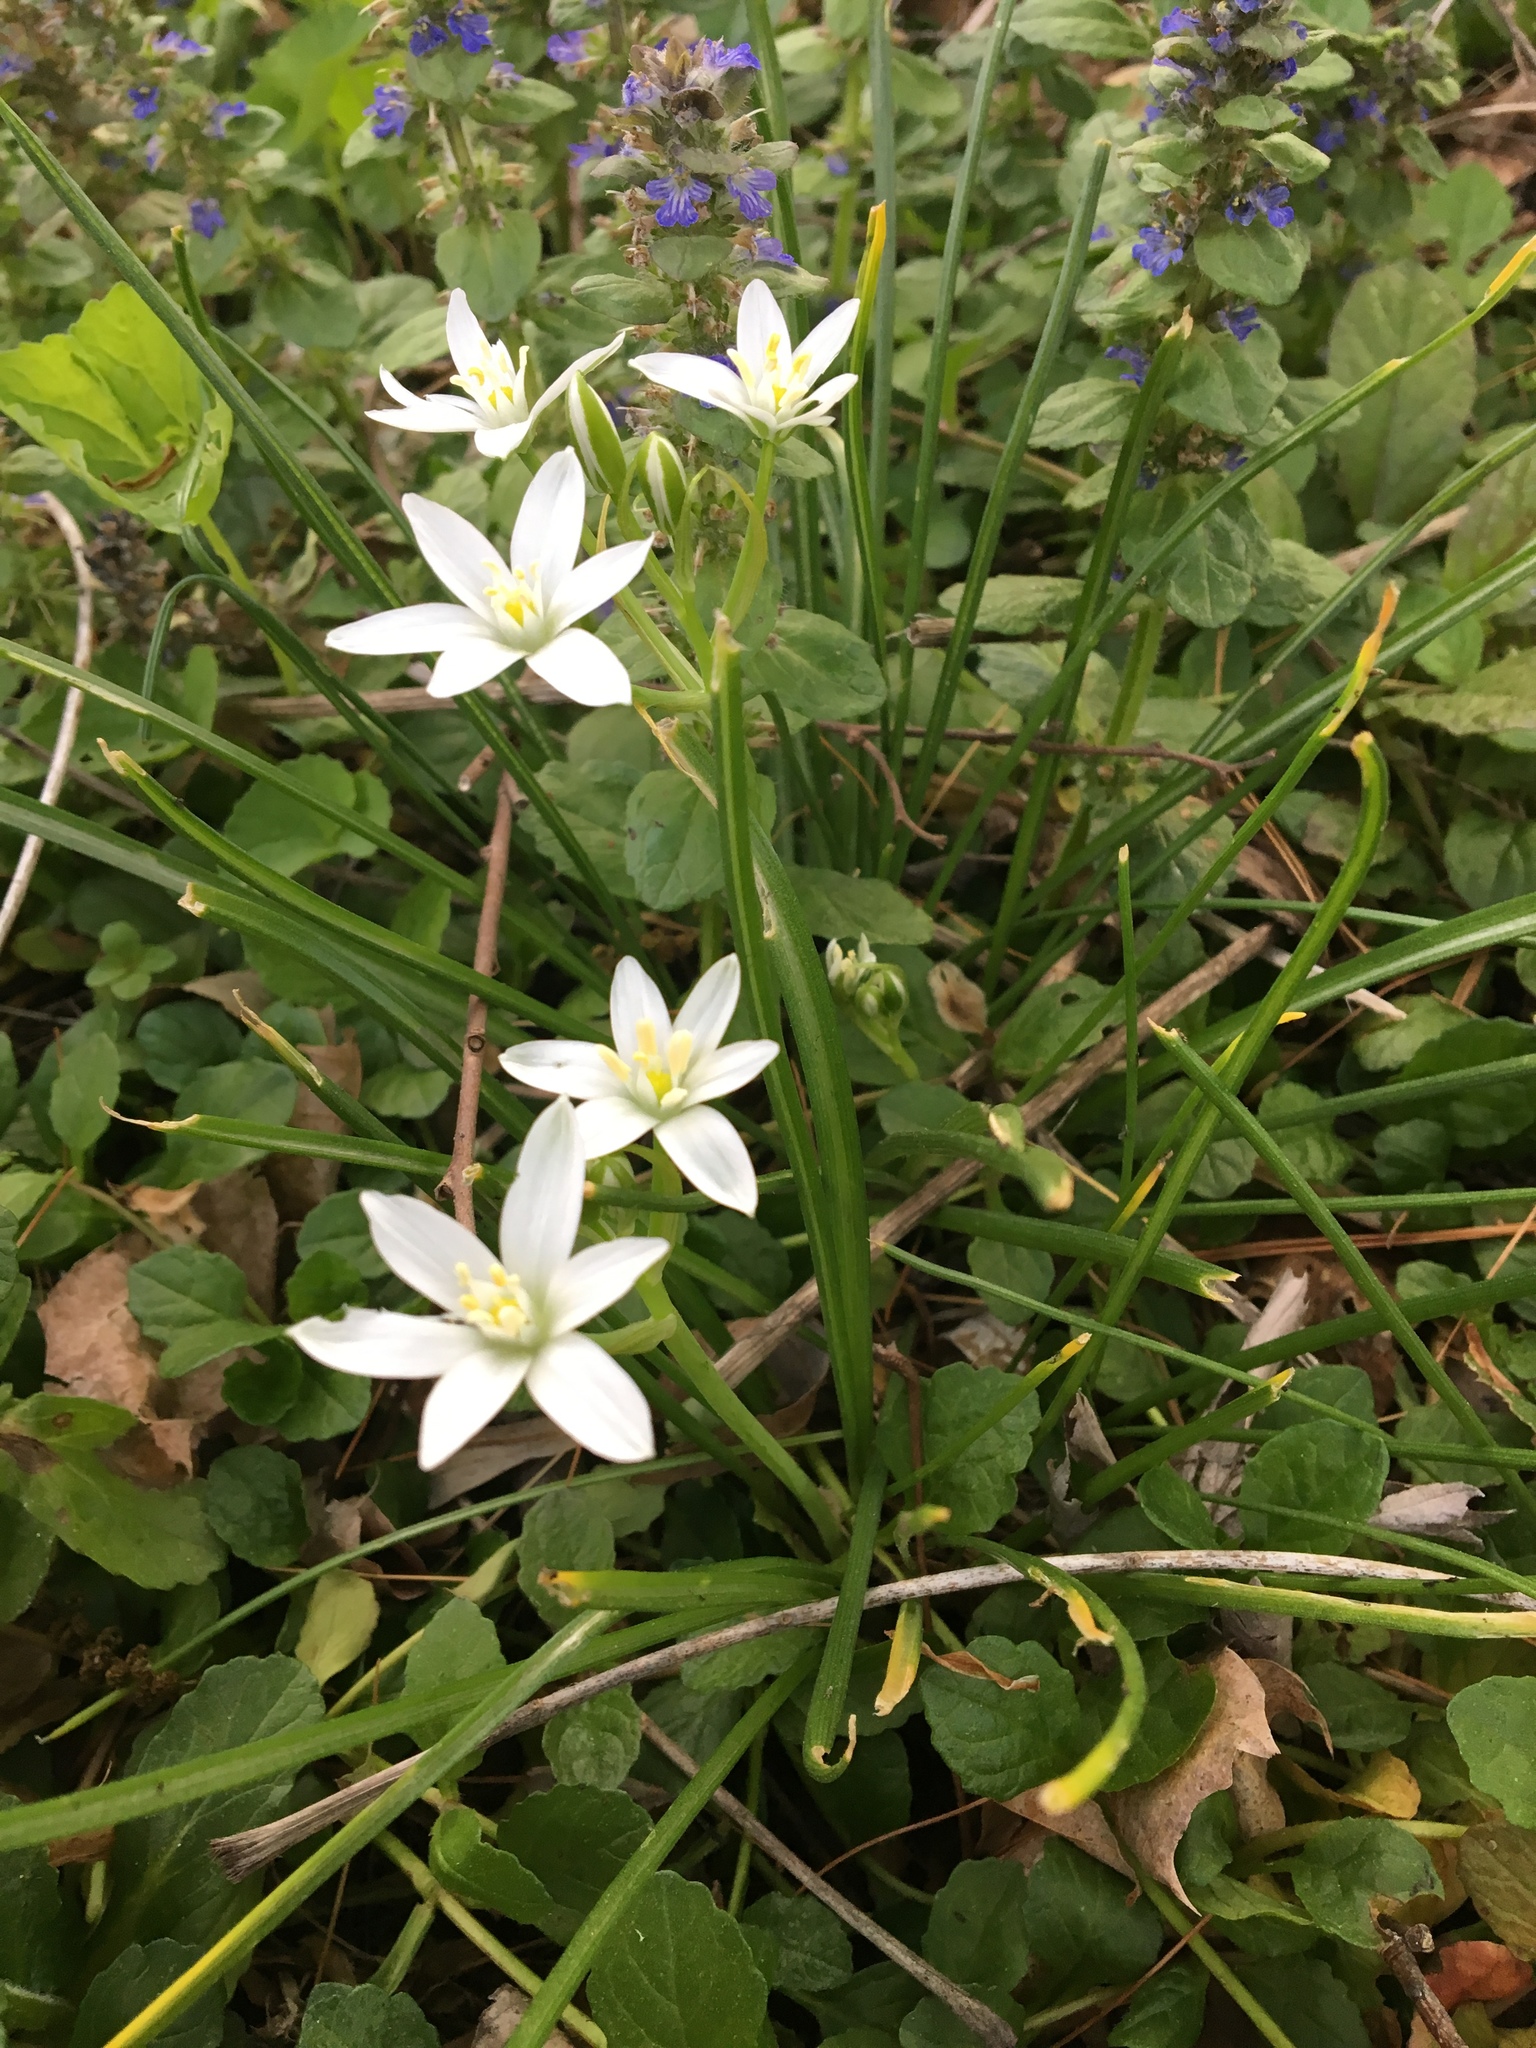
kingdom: Plantae
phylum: Tracheophyta
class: Liliopsida
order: Asparagales
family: Asparagaceae
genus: Ornithogalum
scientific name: Ornithogalum umbellatum
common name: Garden star-of-bethlehem
